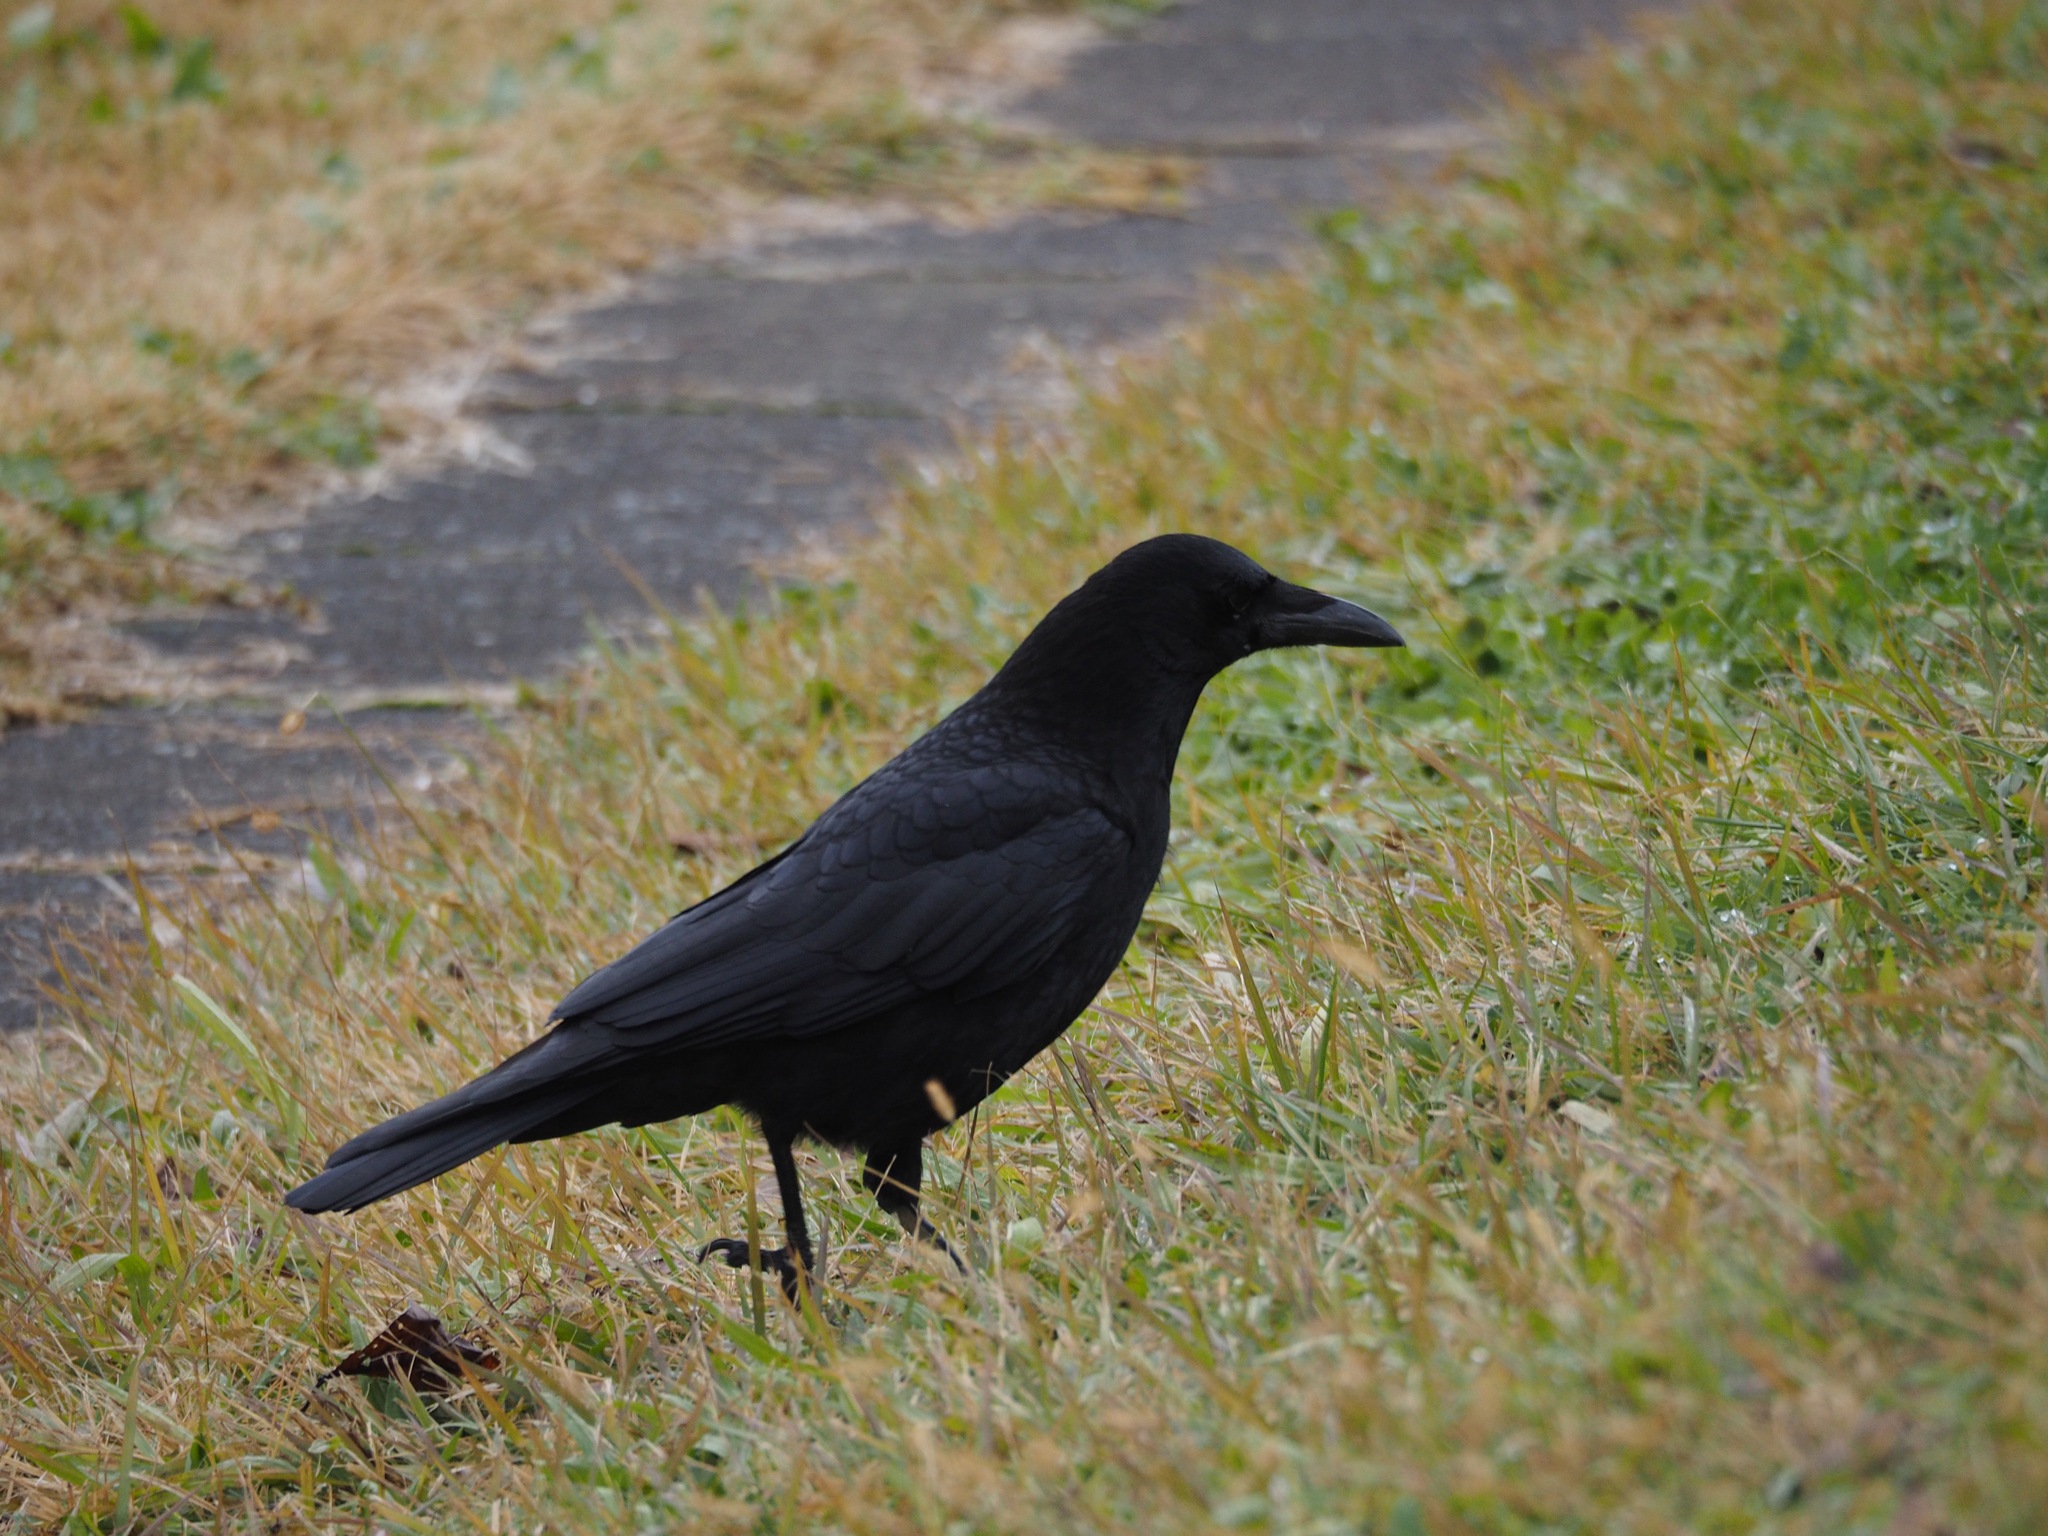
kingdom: Animalia
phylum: Chordata
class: Aves
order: Passeriformes
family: Corvidae
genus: Corvus
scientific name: Corvus corone
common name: Carrion crow
